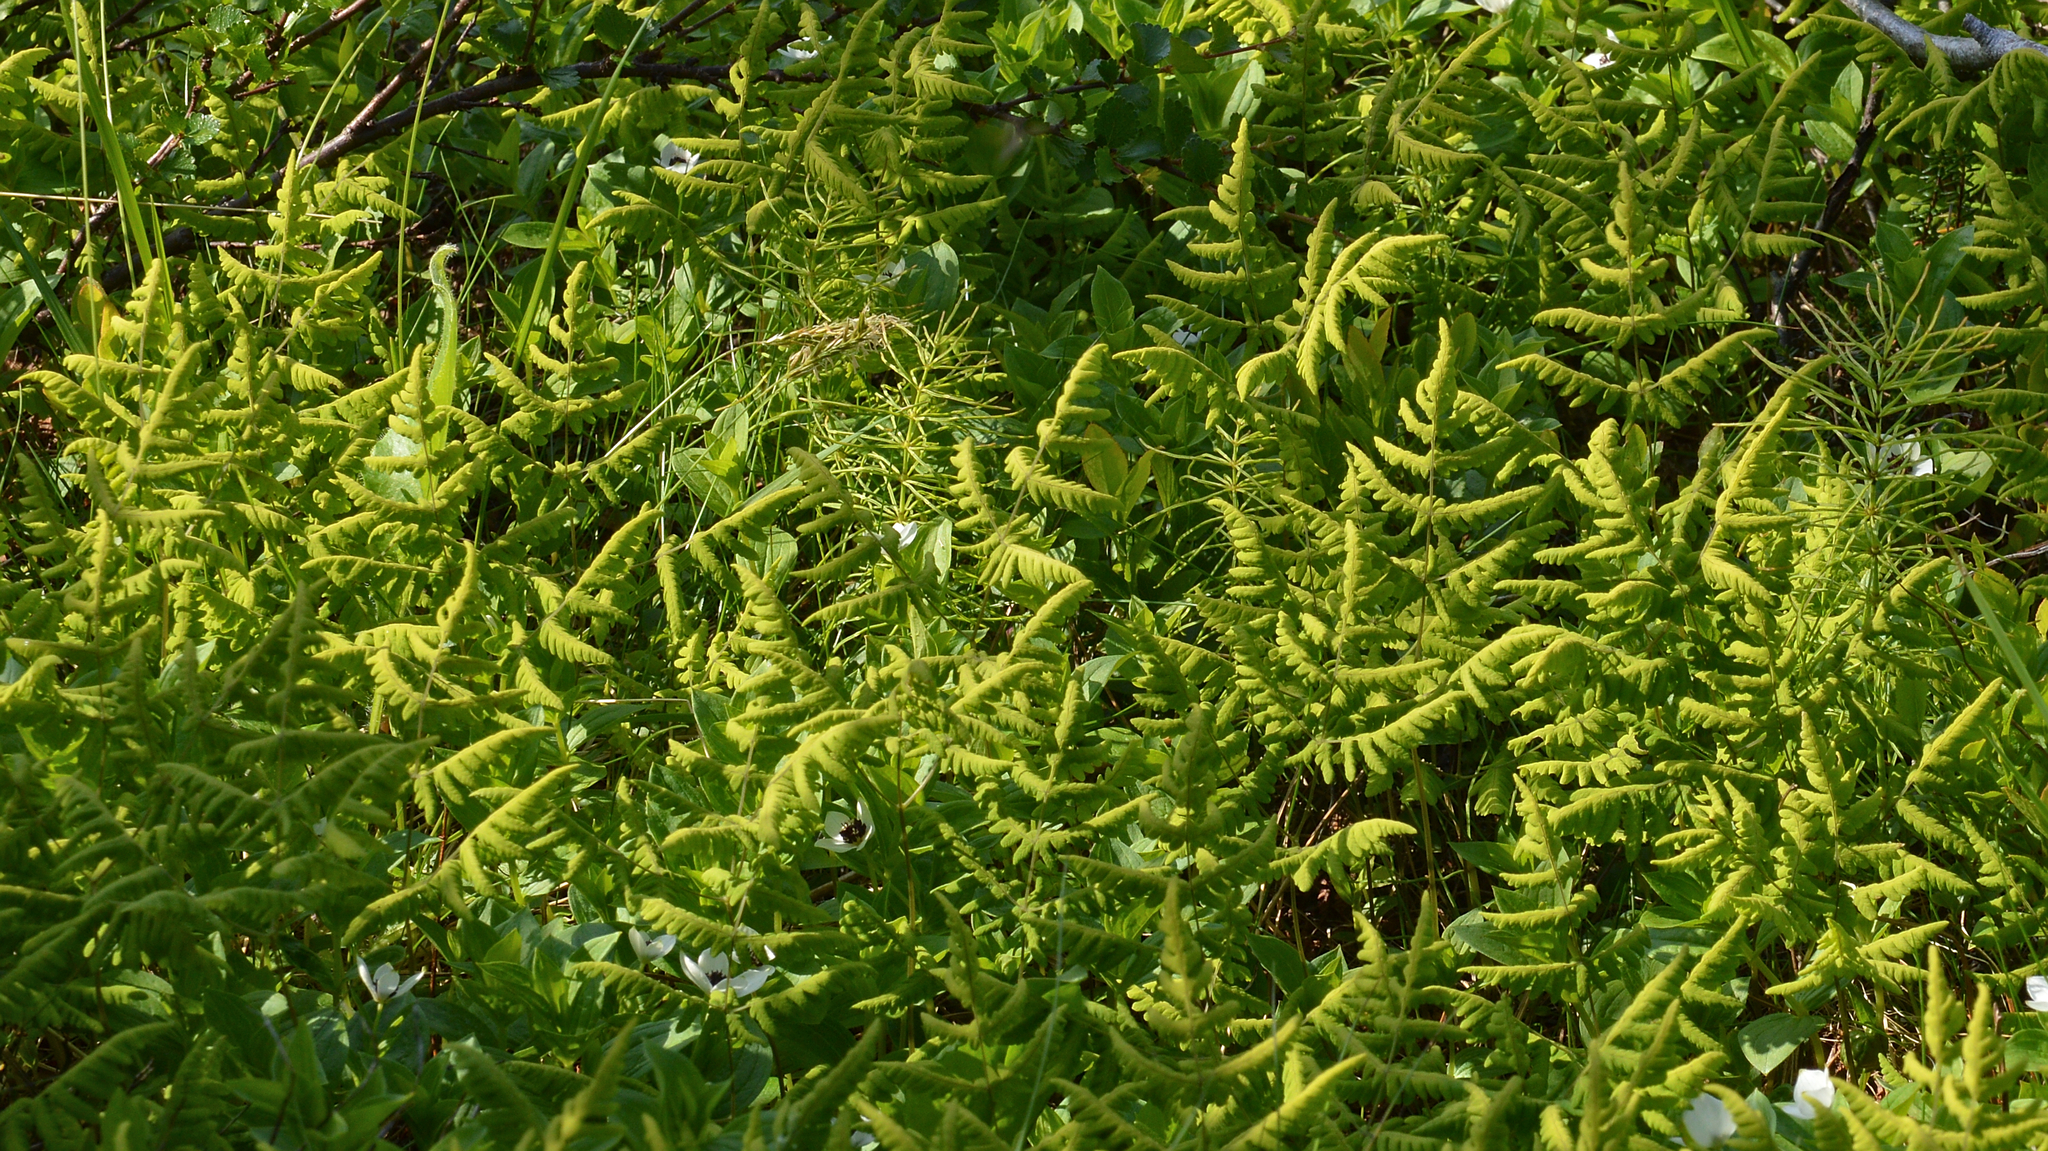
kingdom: Plantae
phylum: Tracheophyta
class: Polypodiopsida
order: Polypodiales
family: Cystopteridaceae
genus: Gymnocarpium
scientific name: Gymnocarpium dryopteris
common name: Oak fern
